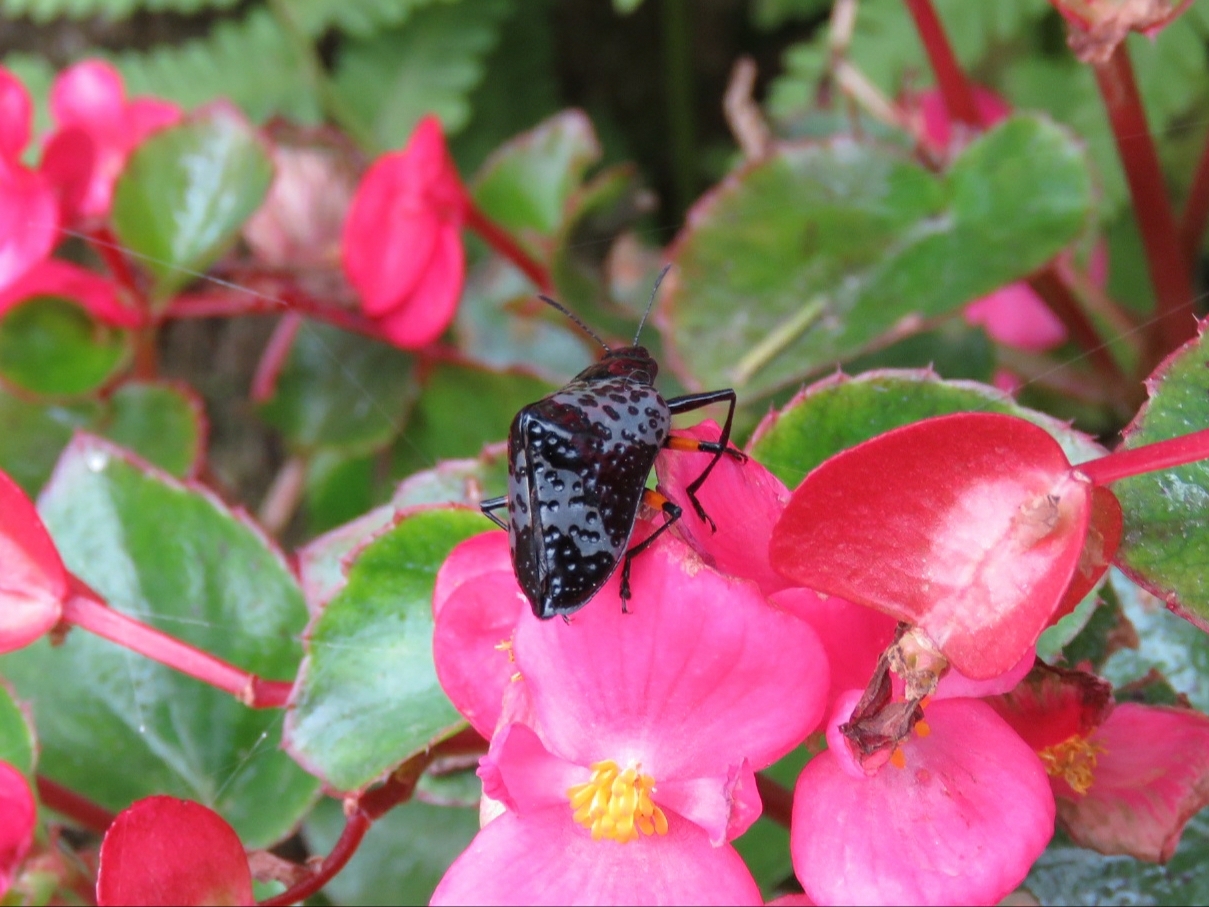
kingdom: Animalia
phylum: Arthropoda
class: Insecta
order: Coleoptera
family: Erotylidae
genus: Gibbifer
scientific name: Gibbifer
